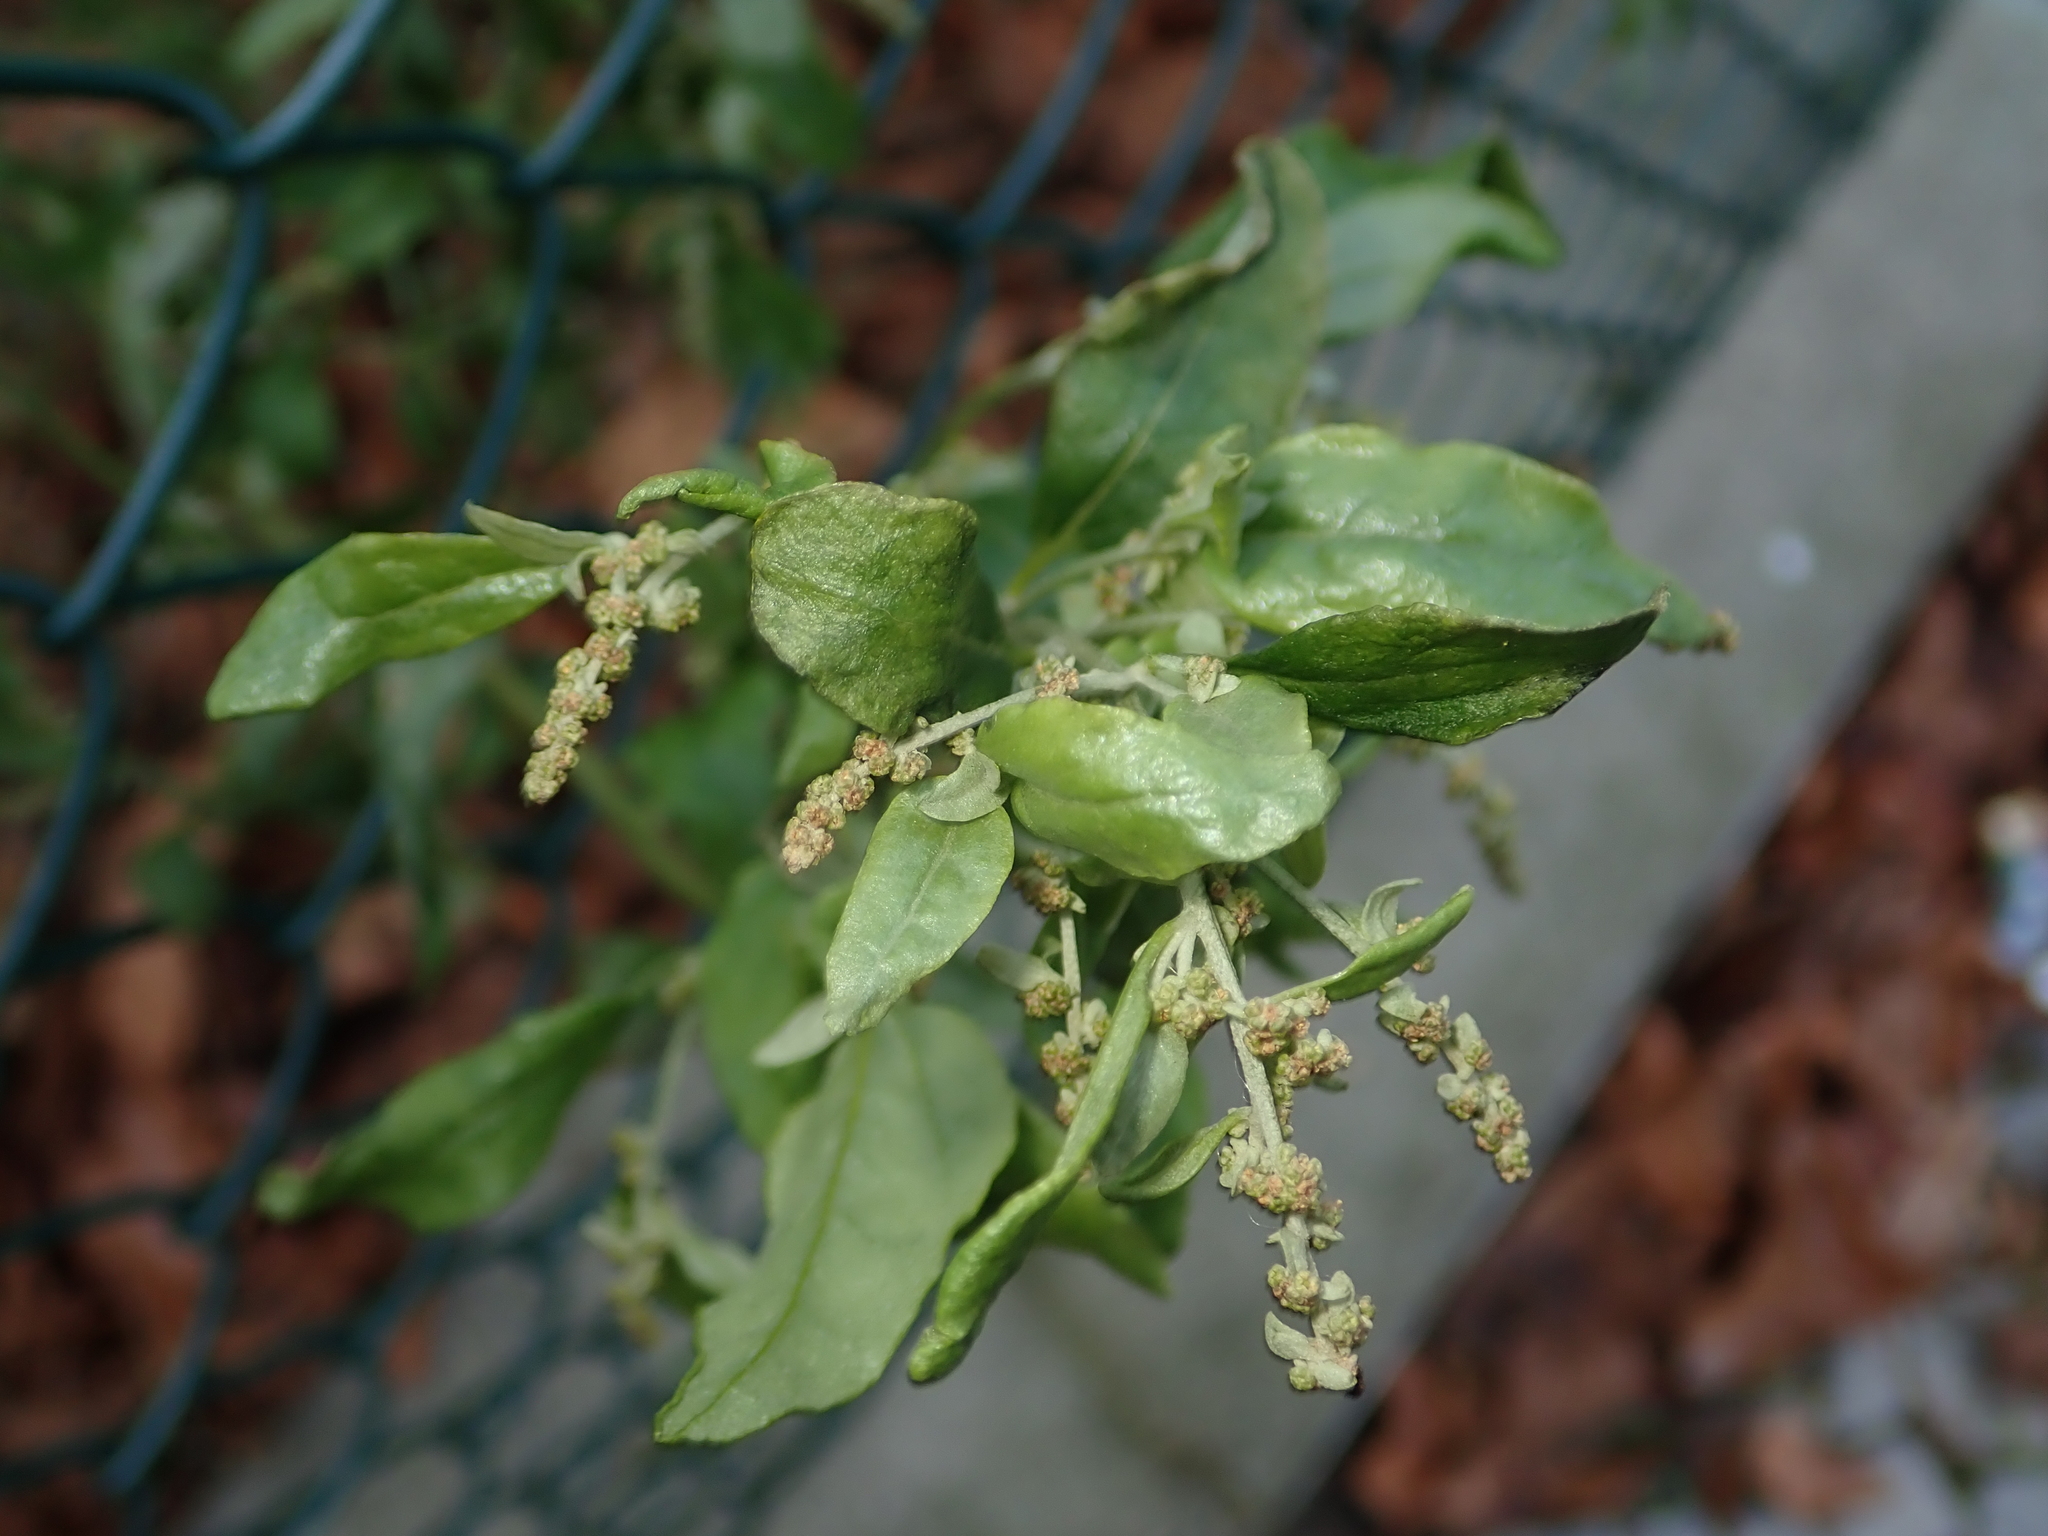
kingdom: Plantae
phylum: Tracheophyta
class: Magnoliopsida
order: Caryophyllales
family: Amaranthaceae
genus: Chenopodium
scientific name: Chenopodium album
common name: Fat-hen
